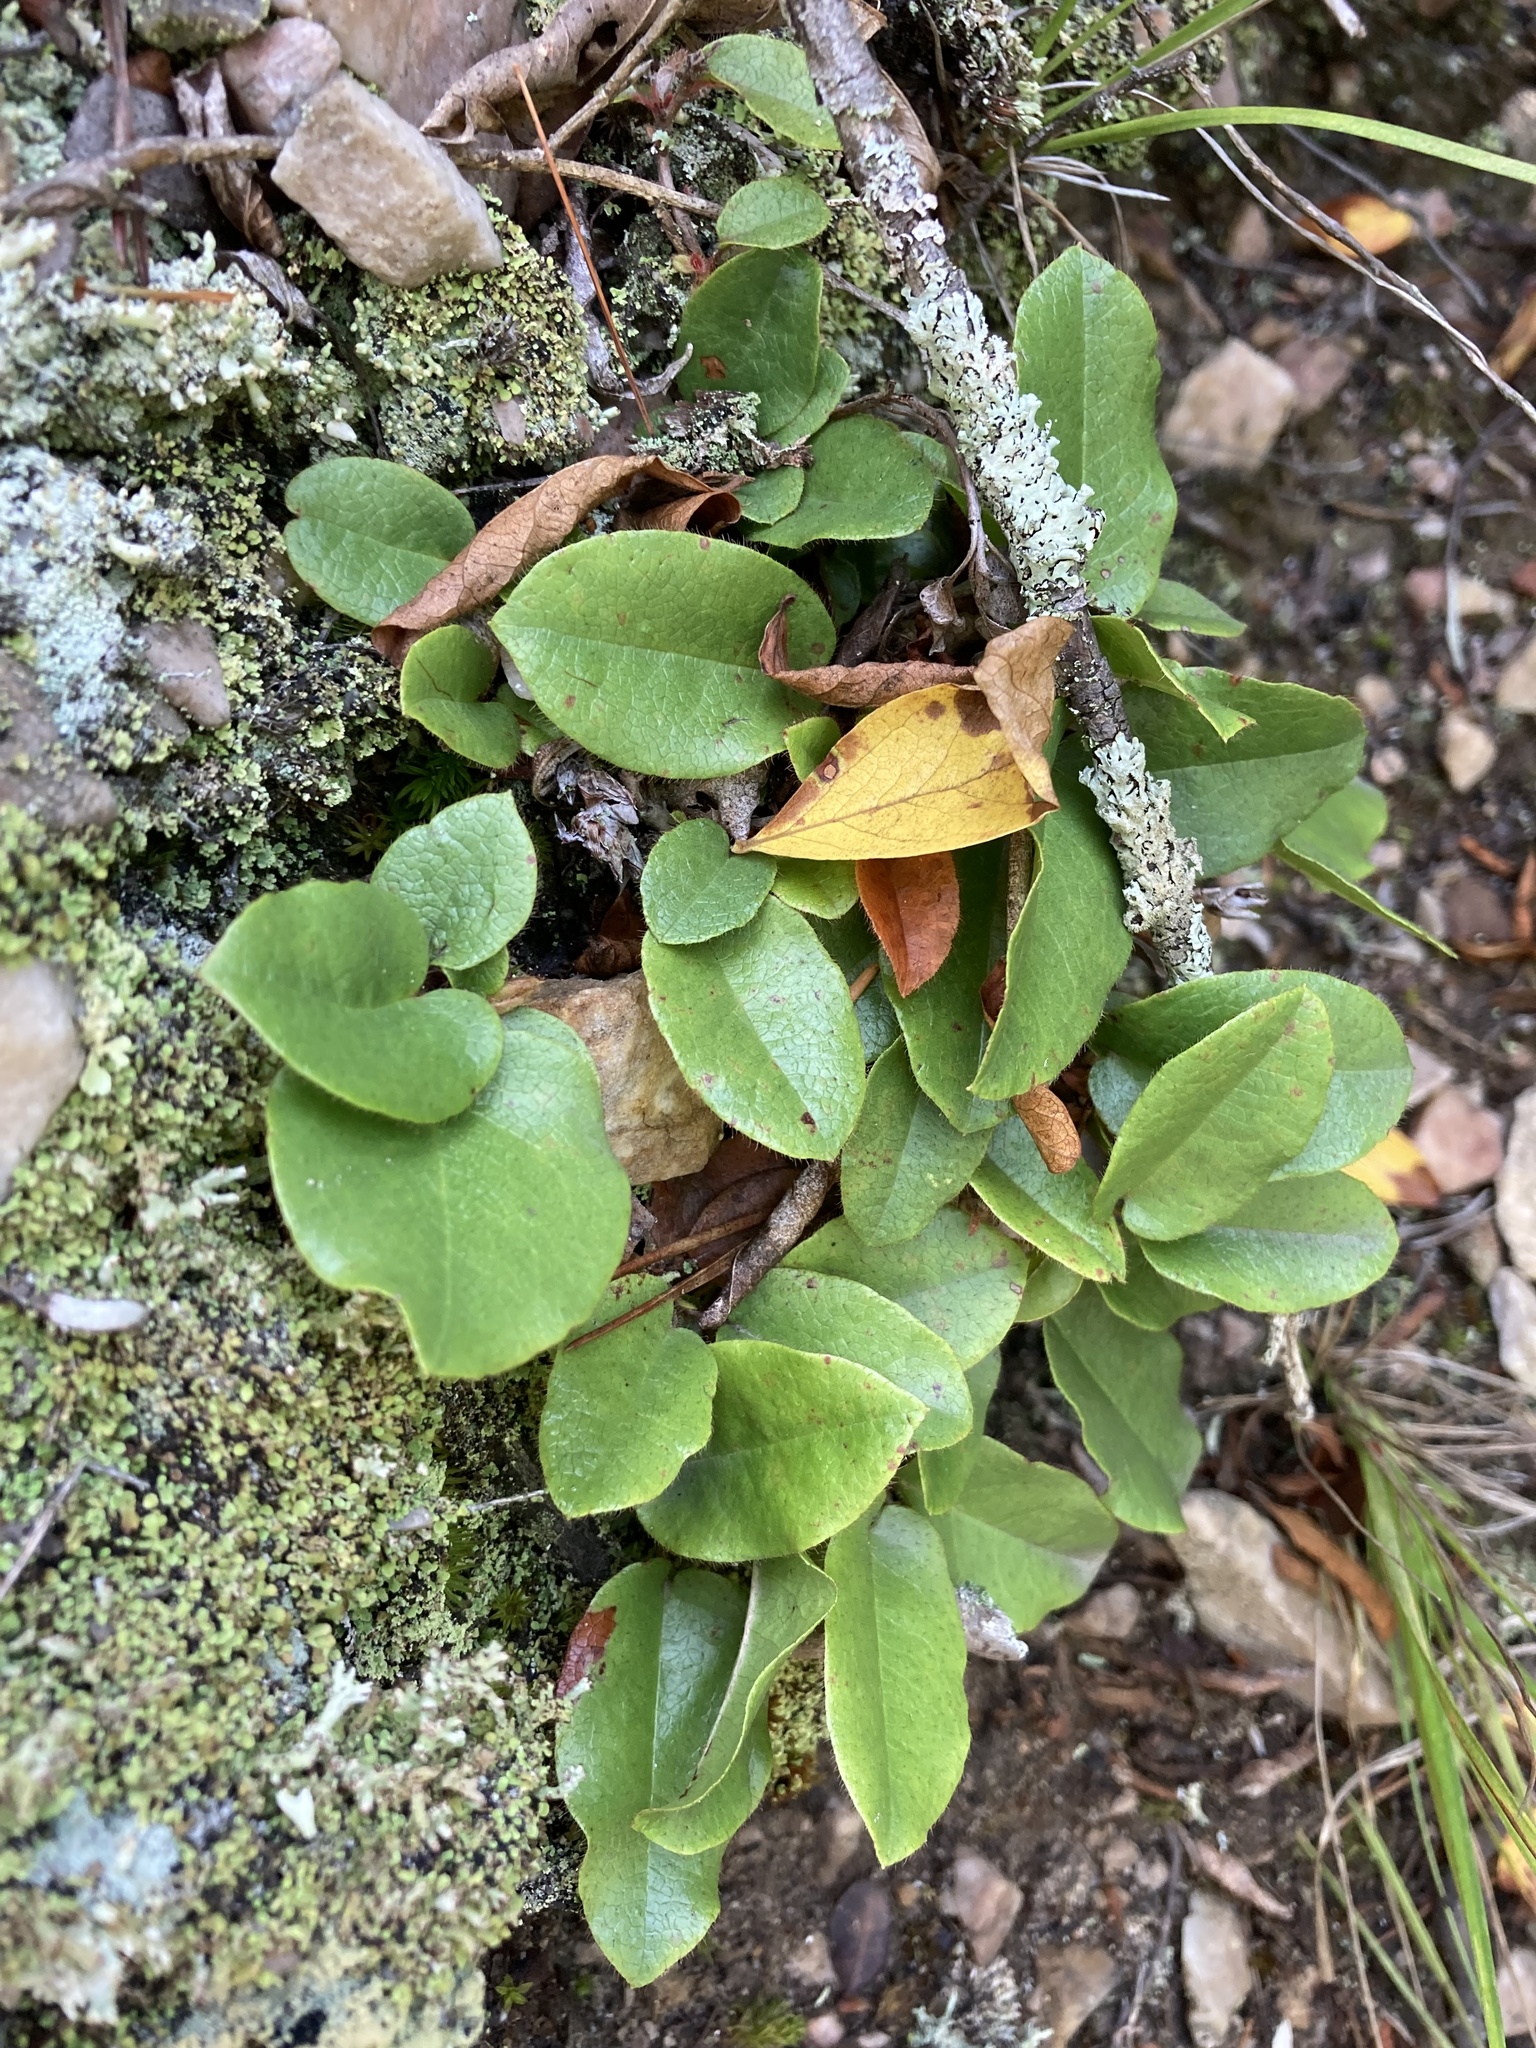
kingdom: Plantae
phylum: Tracheophyta
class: Magnoliopsida
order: Ericales
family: Ericaceae
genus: Epigaea
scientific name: Epigaea repens
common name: Gravelroot
